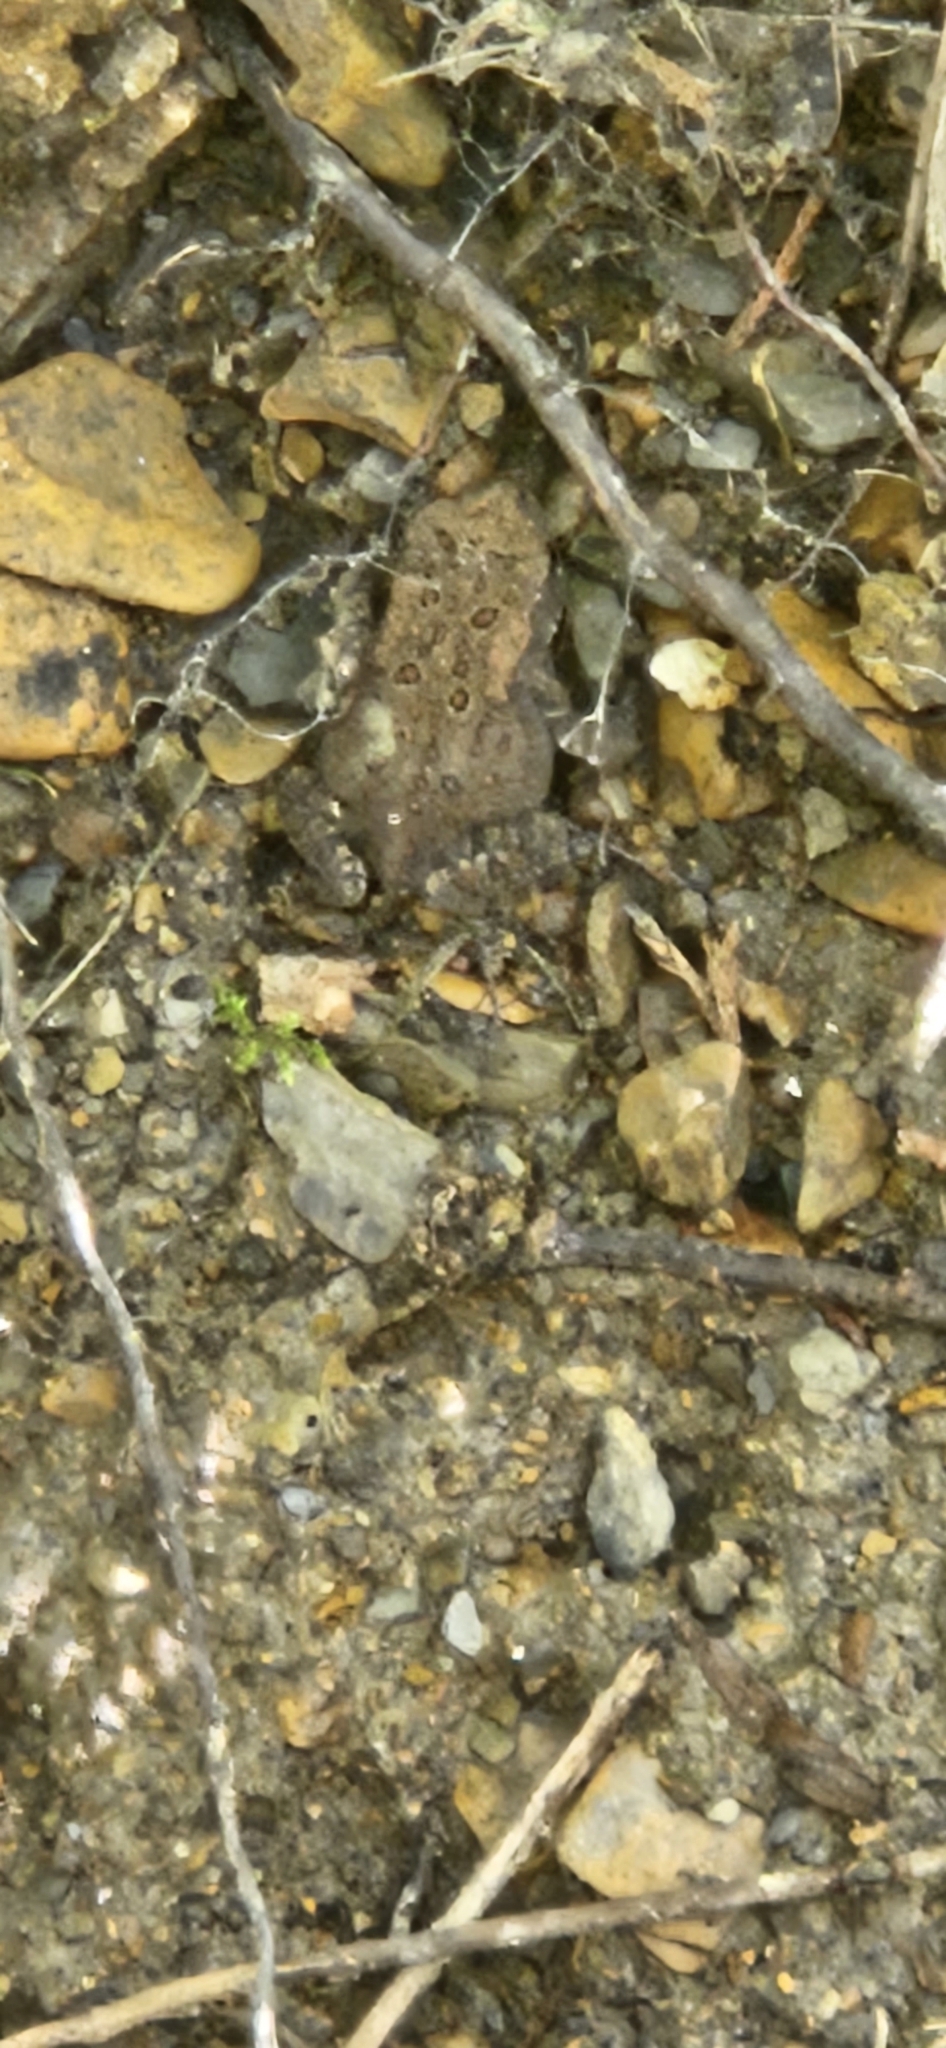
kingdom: Animalia
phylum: Chordata
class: Amphibia
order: Anura
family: Bufonidae
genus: Anaxyrus
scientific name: Anaxyrus americanus
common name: American toad
